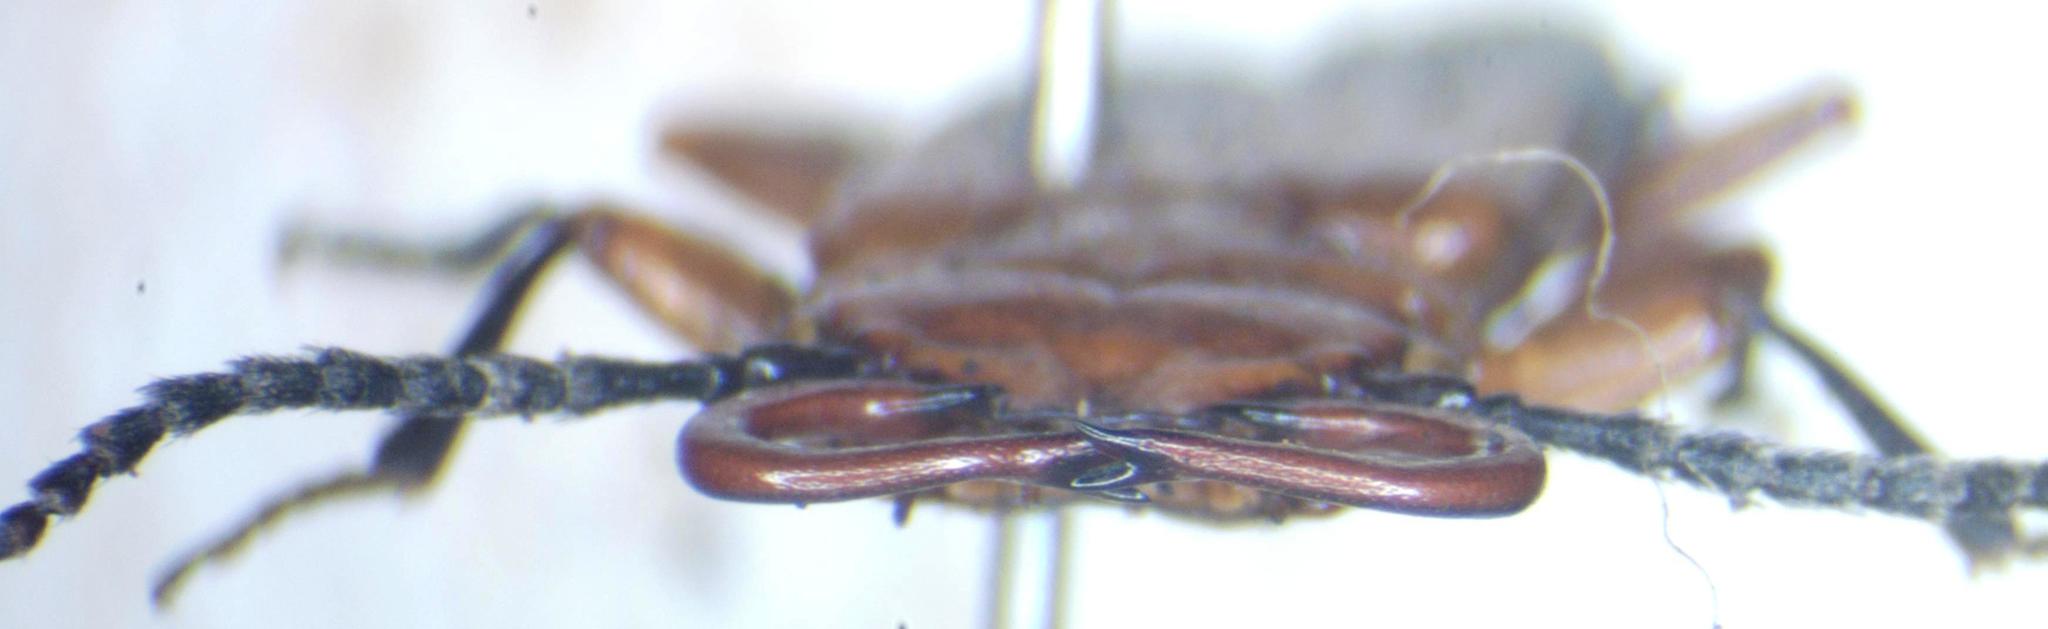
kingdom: Animalia
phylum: Arthropoda
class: Insecta
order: Coleoptera
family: Cucujidae
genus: Palaestes
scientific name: Palaestes
